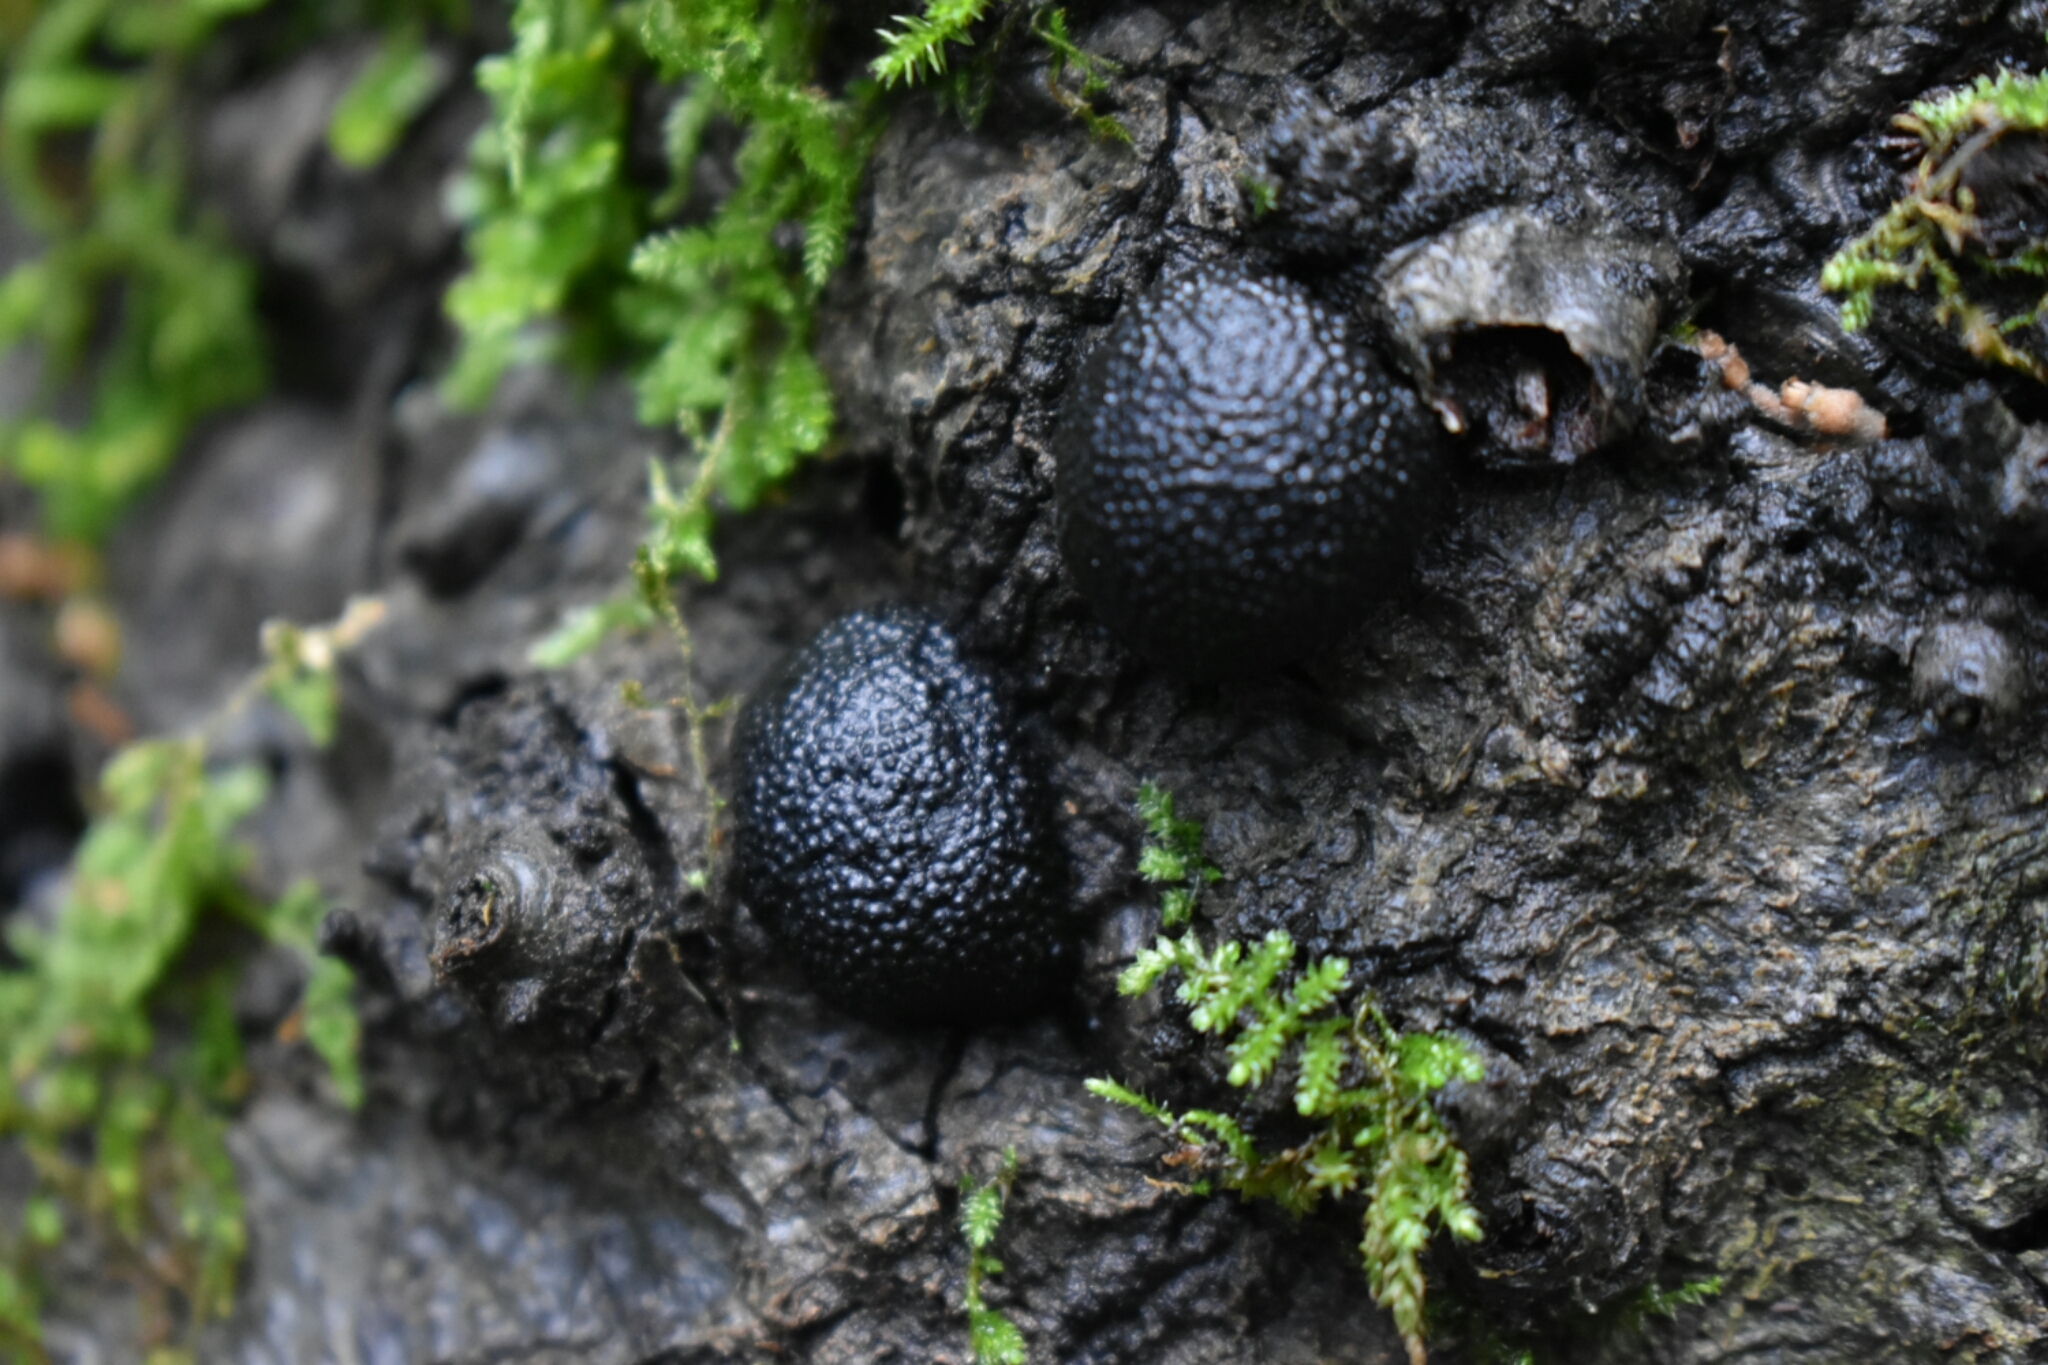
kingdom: Fungi
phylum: Ascomycota
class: Sordariomycetes
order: Xylariales
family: Hypoxylaceae
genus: Annulohypoxylon
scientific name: Annulohypoxylon thouarsianum
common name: Cramp balls
